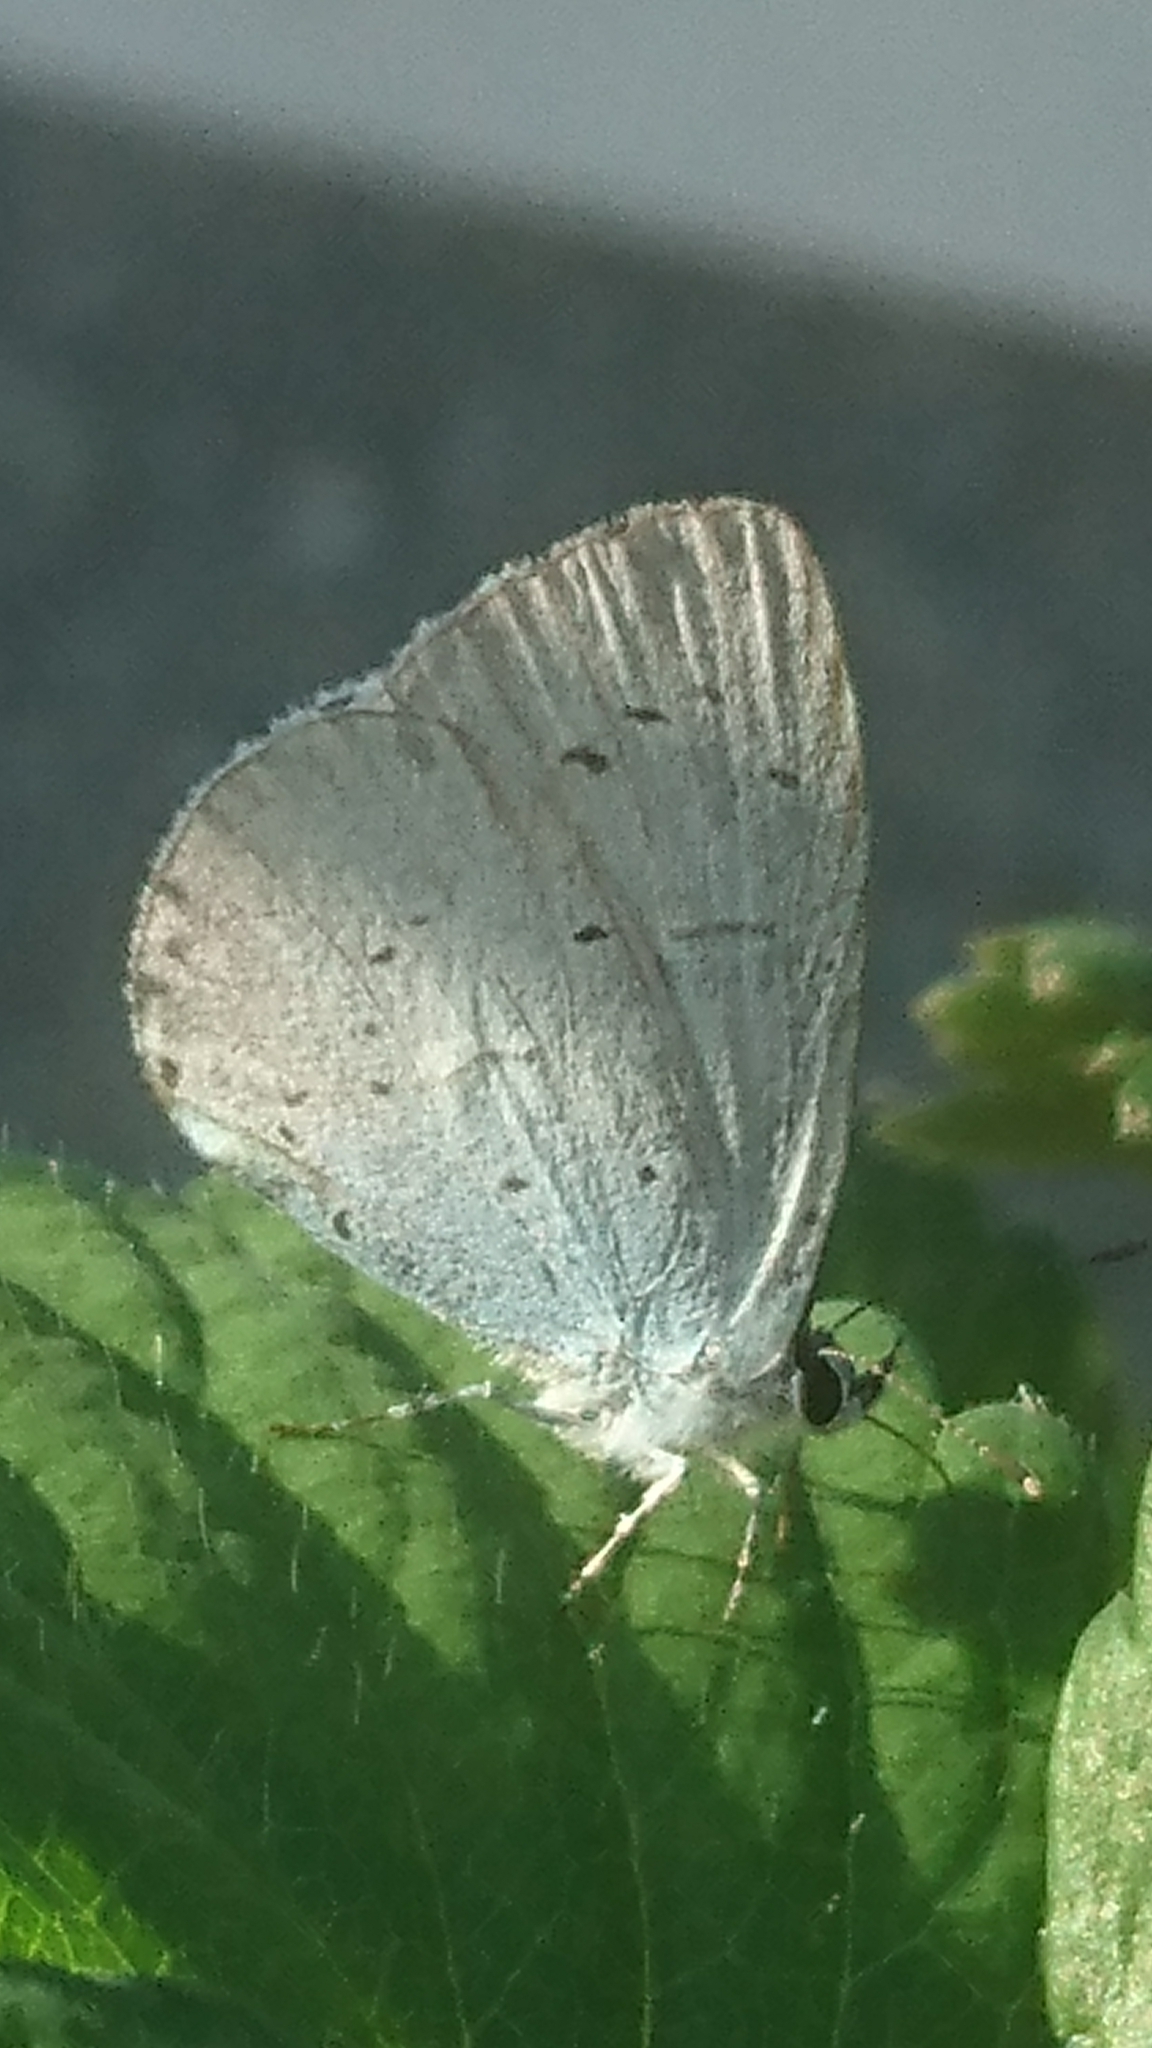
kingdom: Animalia
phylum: Arthropoda
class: Insecta
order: Lepidoptera
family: Lycaenidae
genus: Celastrina
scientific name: Celastrina argiolus
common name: Holly blue
